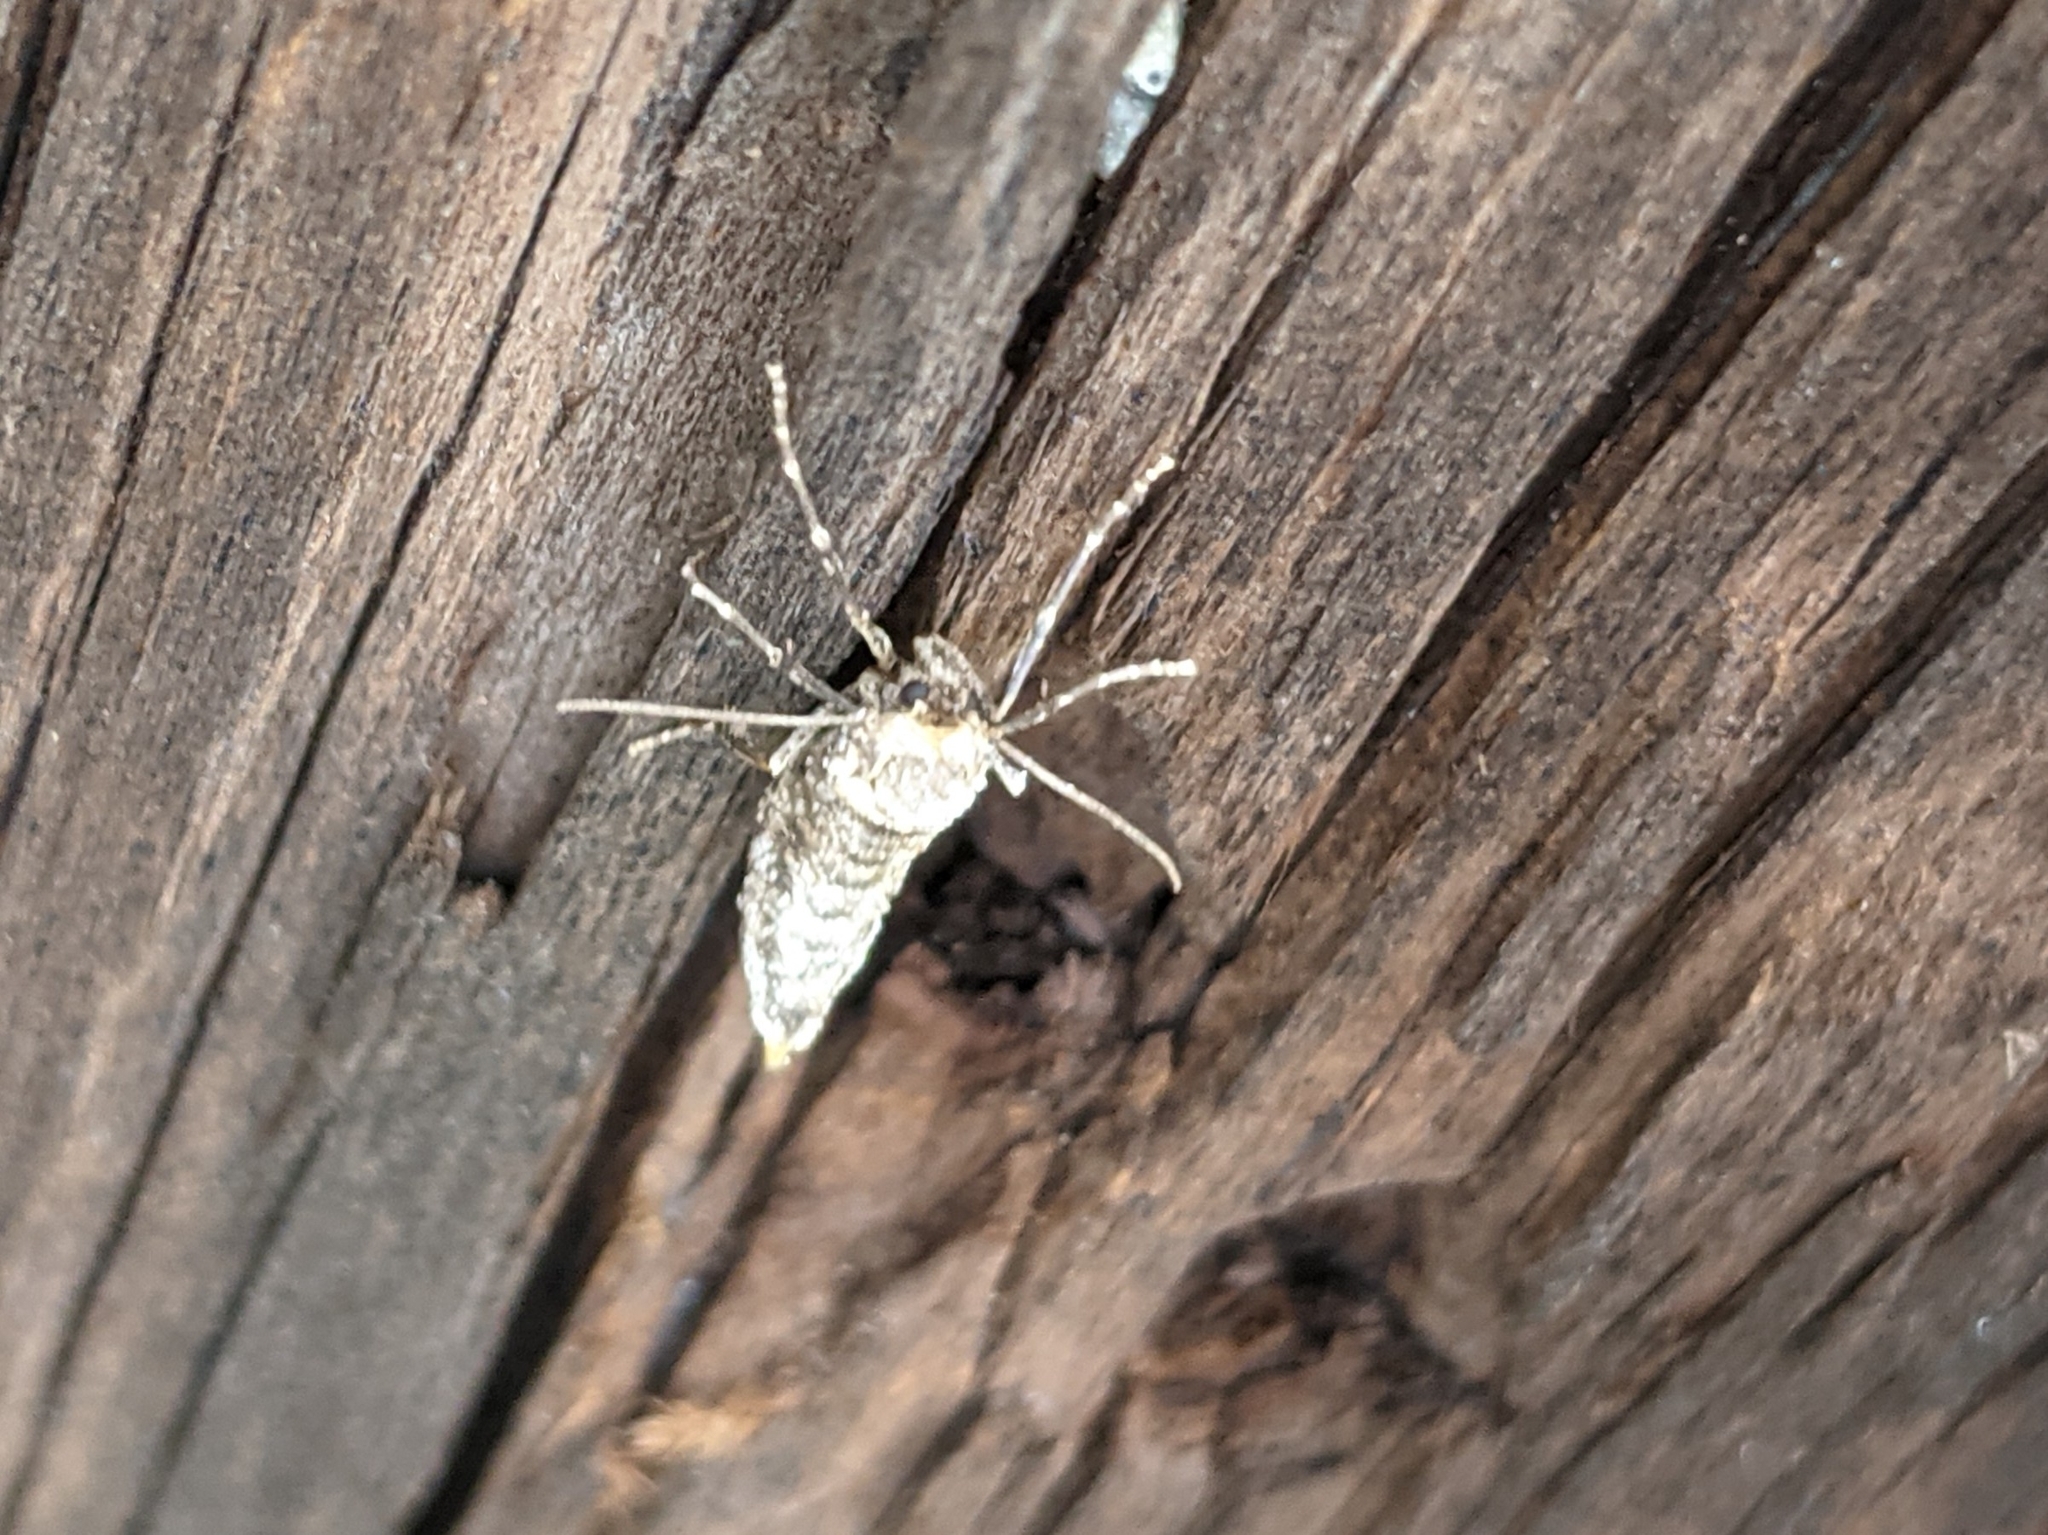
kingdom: Animalia
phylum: Arthropoda
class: Insecta
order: Lepidoptera
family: Geometridae
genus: Alsophila
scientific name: Alsophila pometaria
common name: Fall cankerworm
